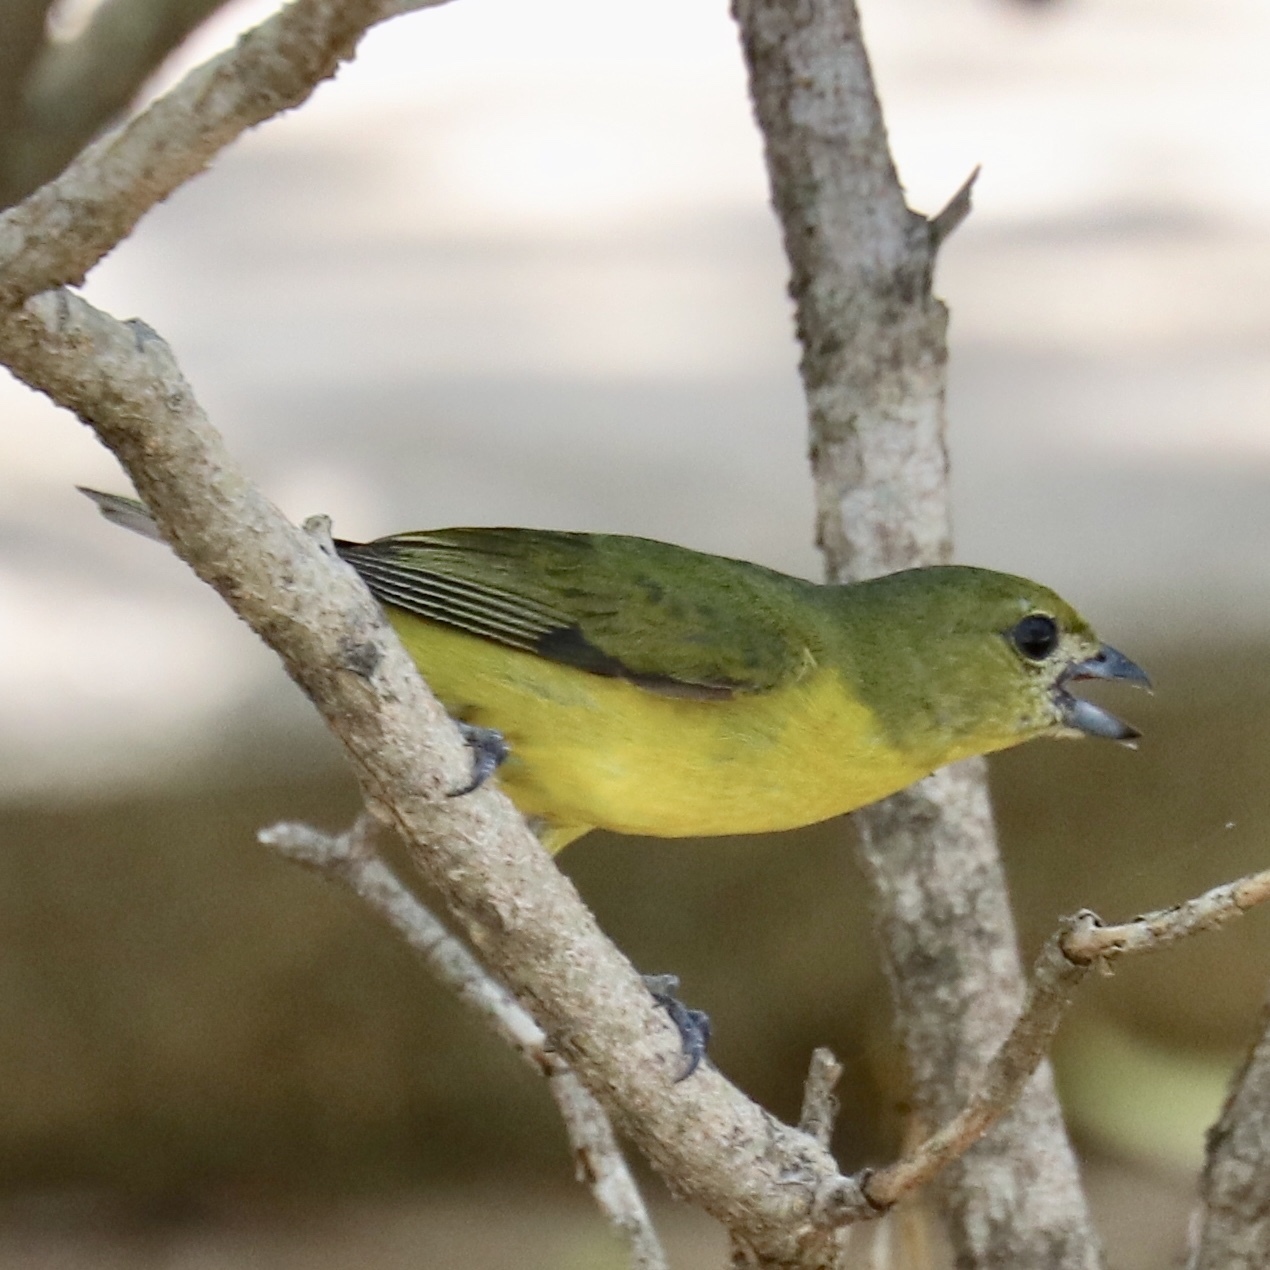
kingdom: Animalia
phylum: Chordata
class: Aves
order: Passeriformes
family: Fringillidae
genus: Euphonia
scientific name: Euphonia laniirostris
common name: Thick-billed euphonia
